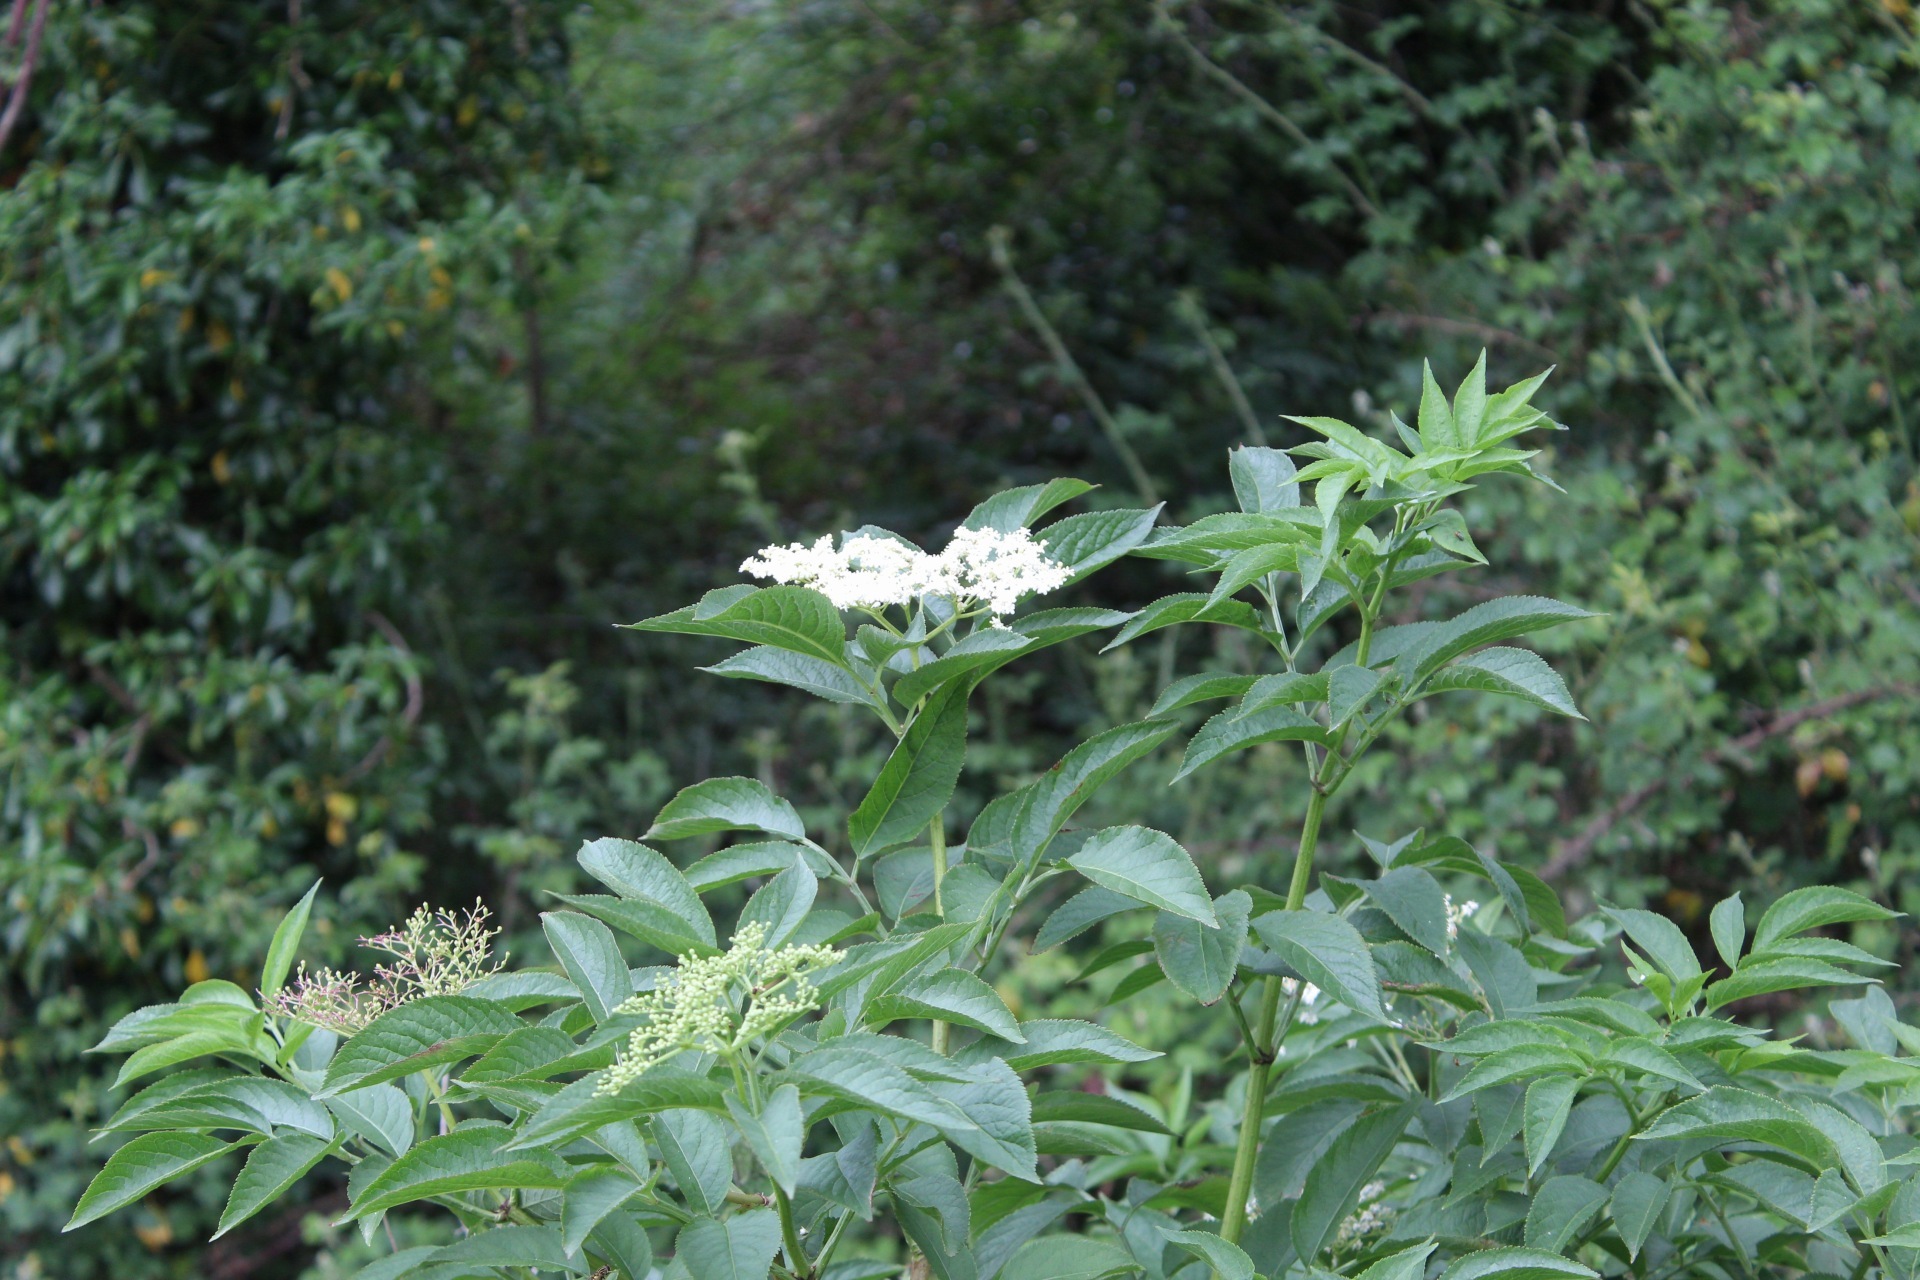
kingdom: Plantae
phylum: Tracheophyta
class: Magnoliopsida
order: Dipsacales
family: Viburnaceae
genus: Sambucus
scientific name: Sambucus nigra
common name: Elder
